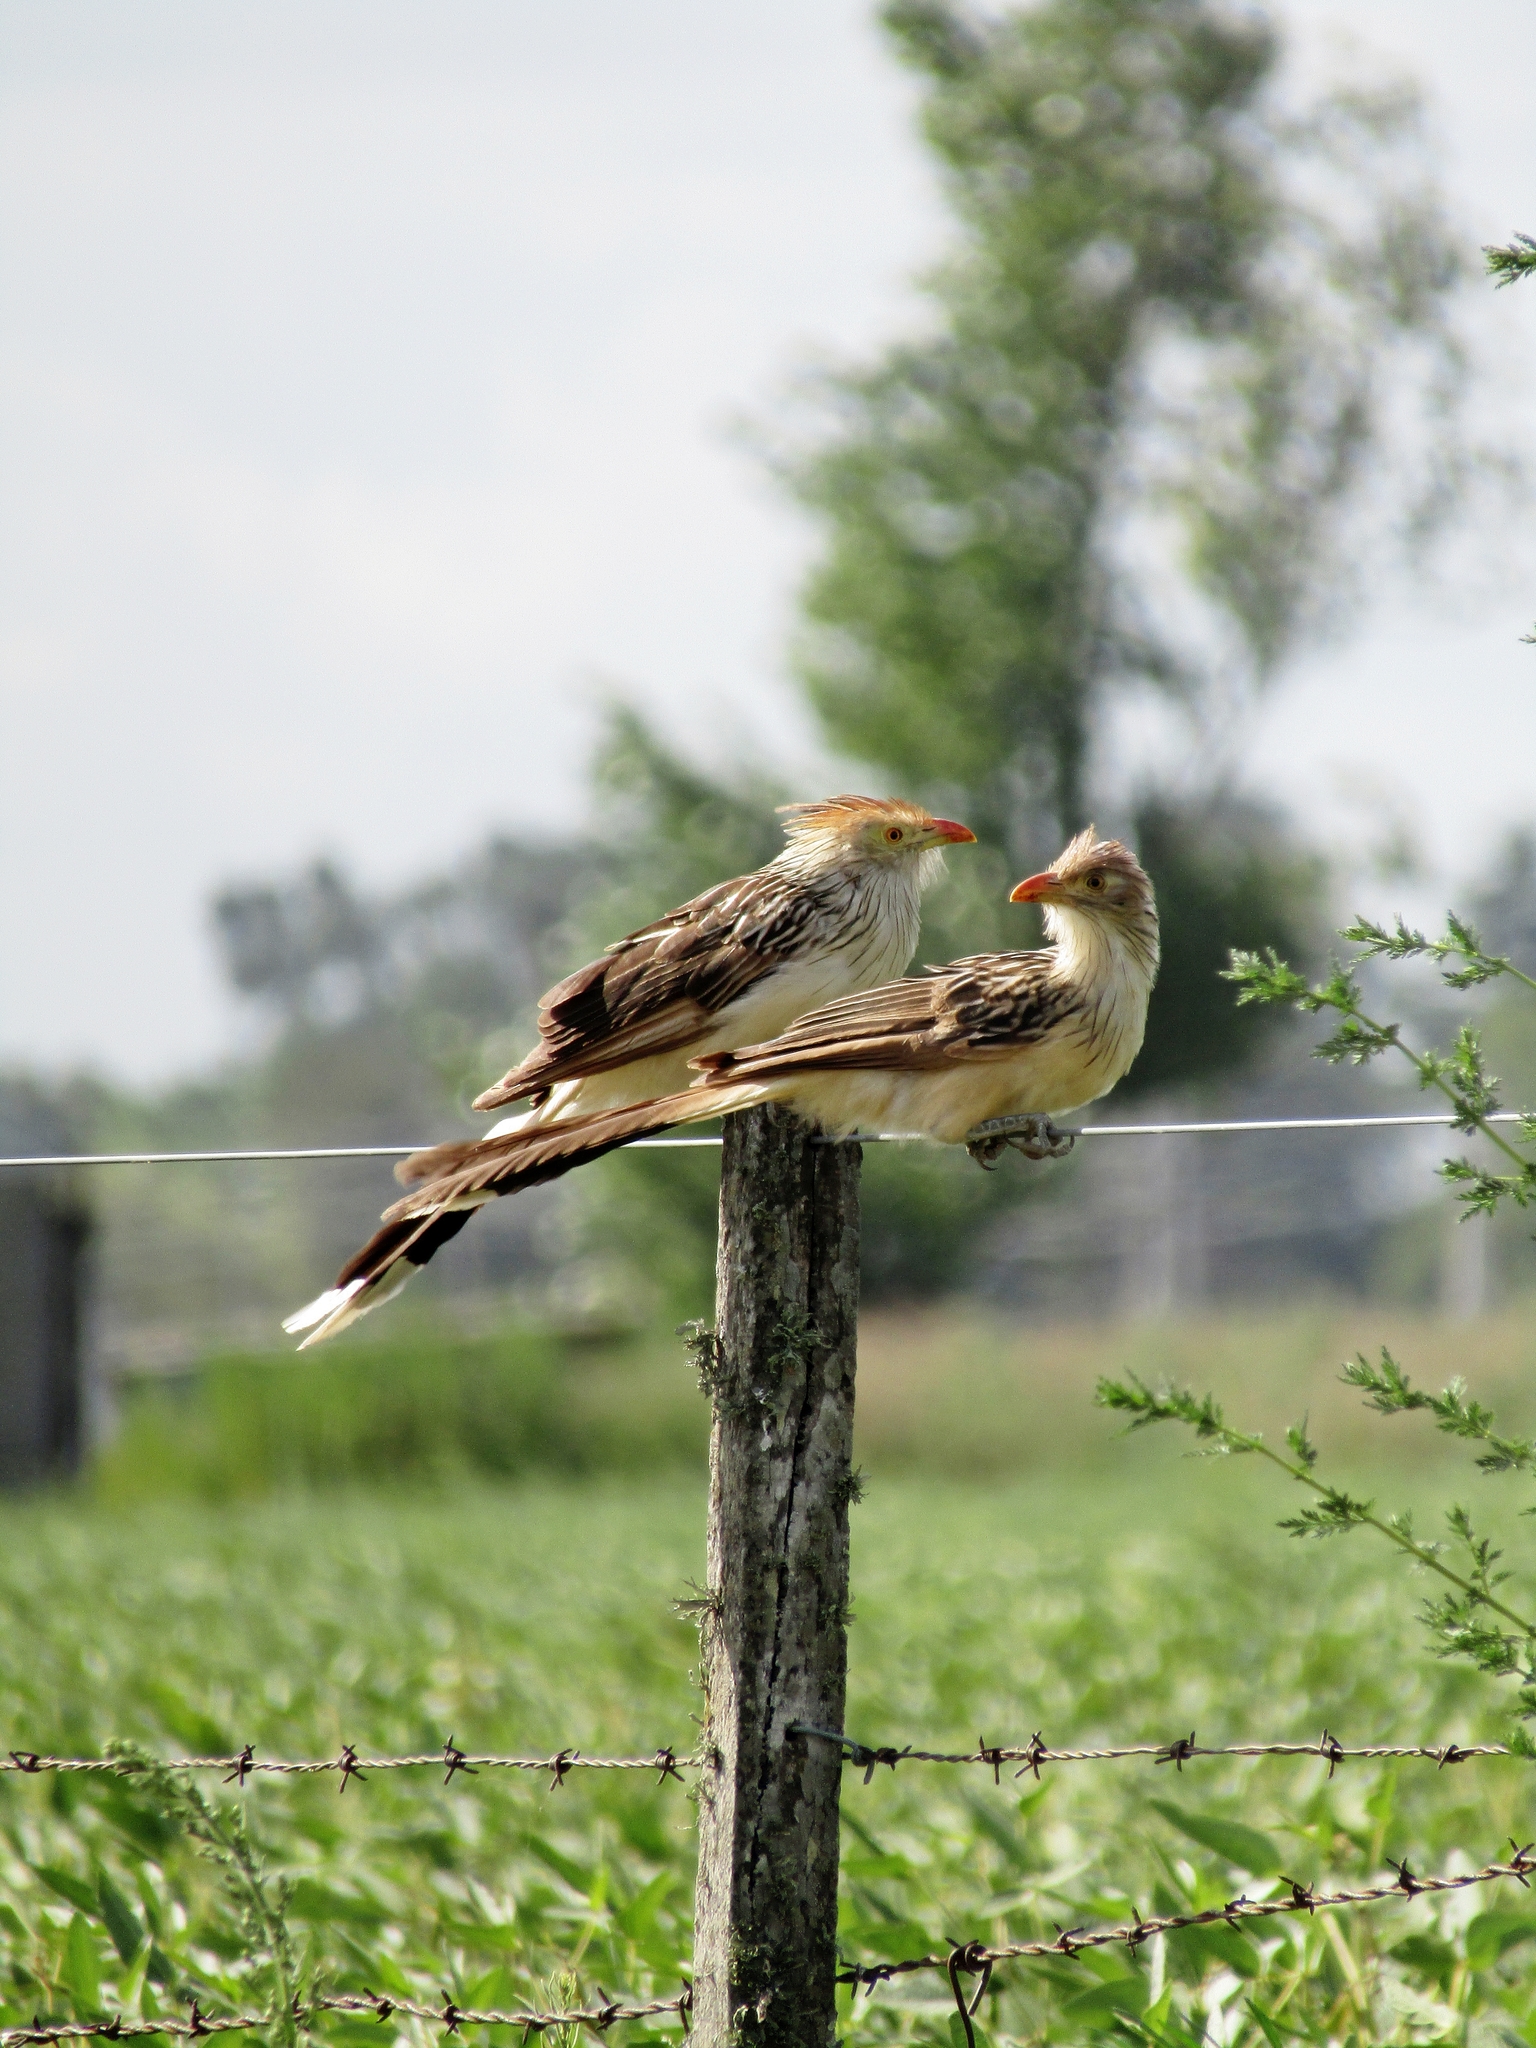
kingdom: Animalia
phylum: Chordata
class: Aves
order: Cuculiformes
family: Cuculidae
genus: Guira
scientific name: Guira guira
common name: Guira cuckoo
